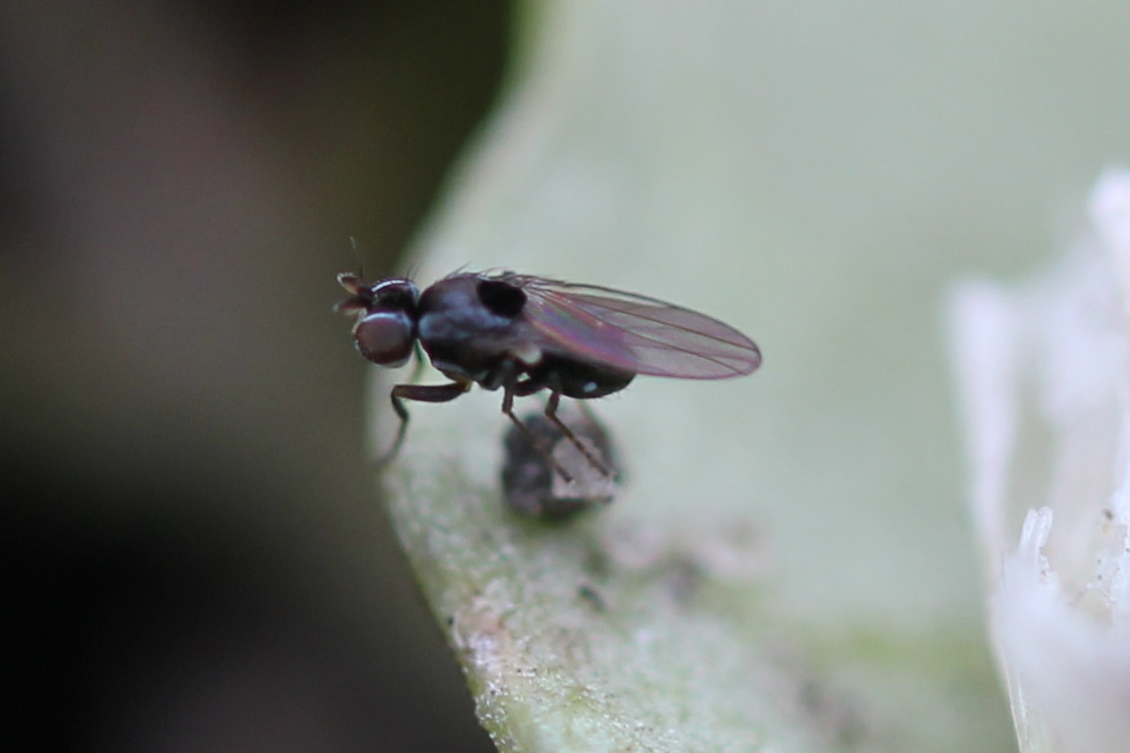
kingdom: Animalia
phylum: Arthropoda
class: Insecta
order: Diptera
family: Ephydridae
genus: Nostima
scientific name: Nostima picta
